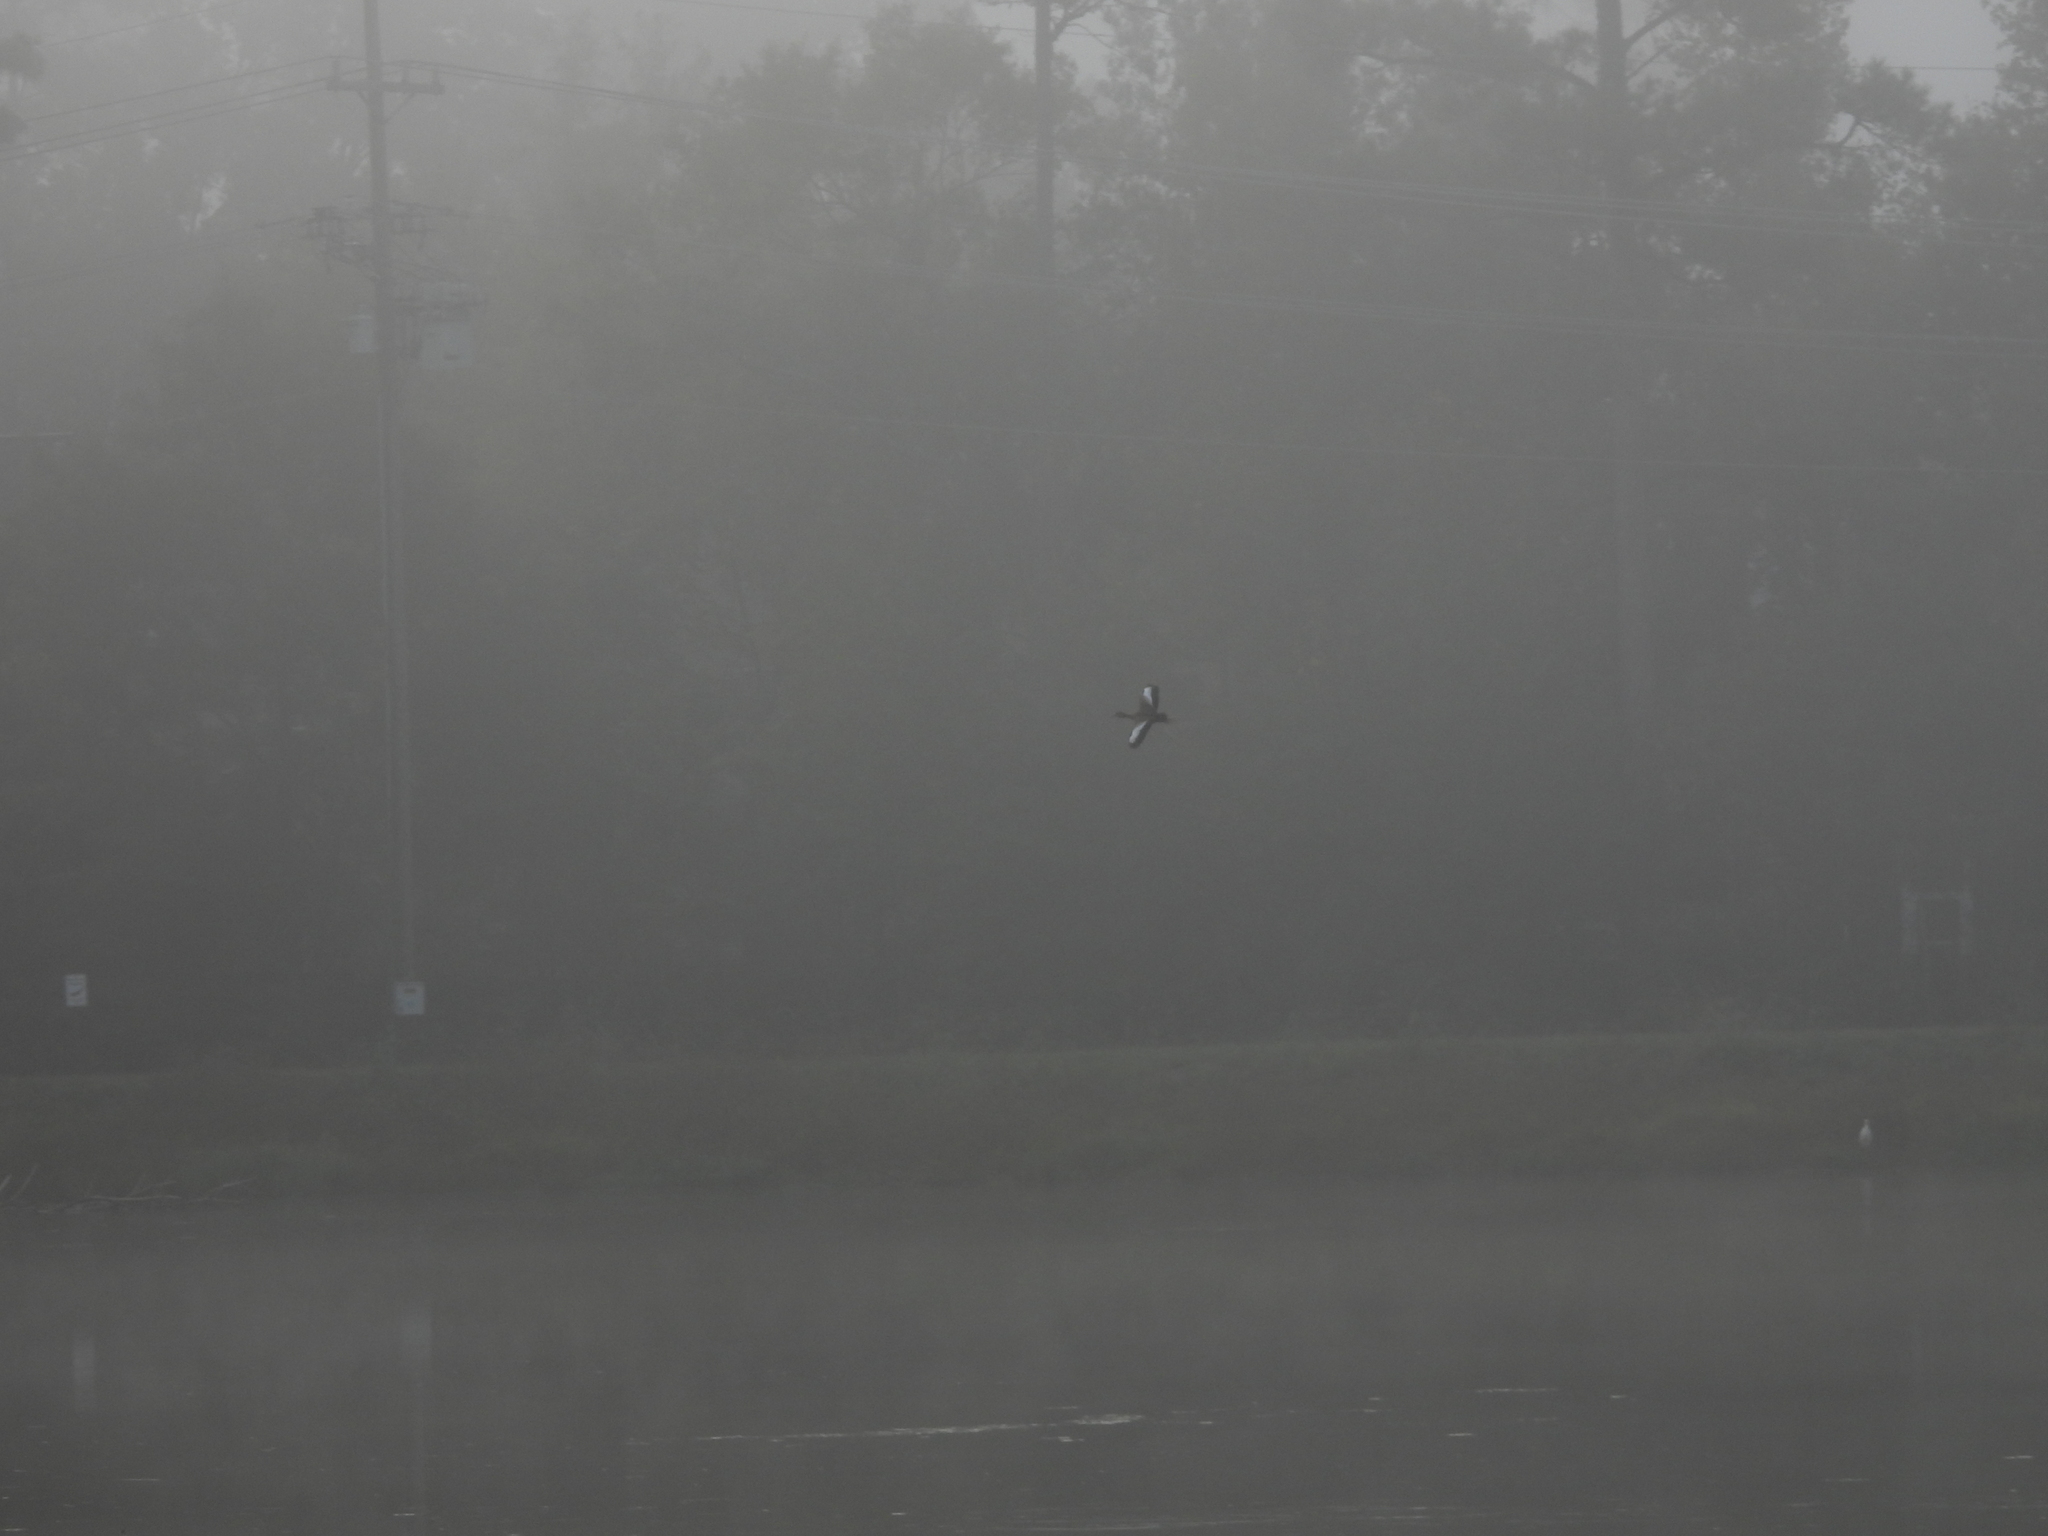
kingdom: Animalia
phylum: Chordata
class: Aves
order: Anseriformes
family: Anatidae
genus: Dendrocygna
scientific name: Dendrocygna autumnalis
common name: Black-bellied whistling duck
